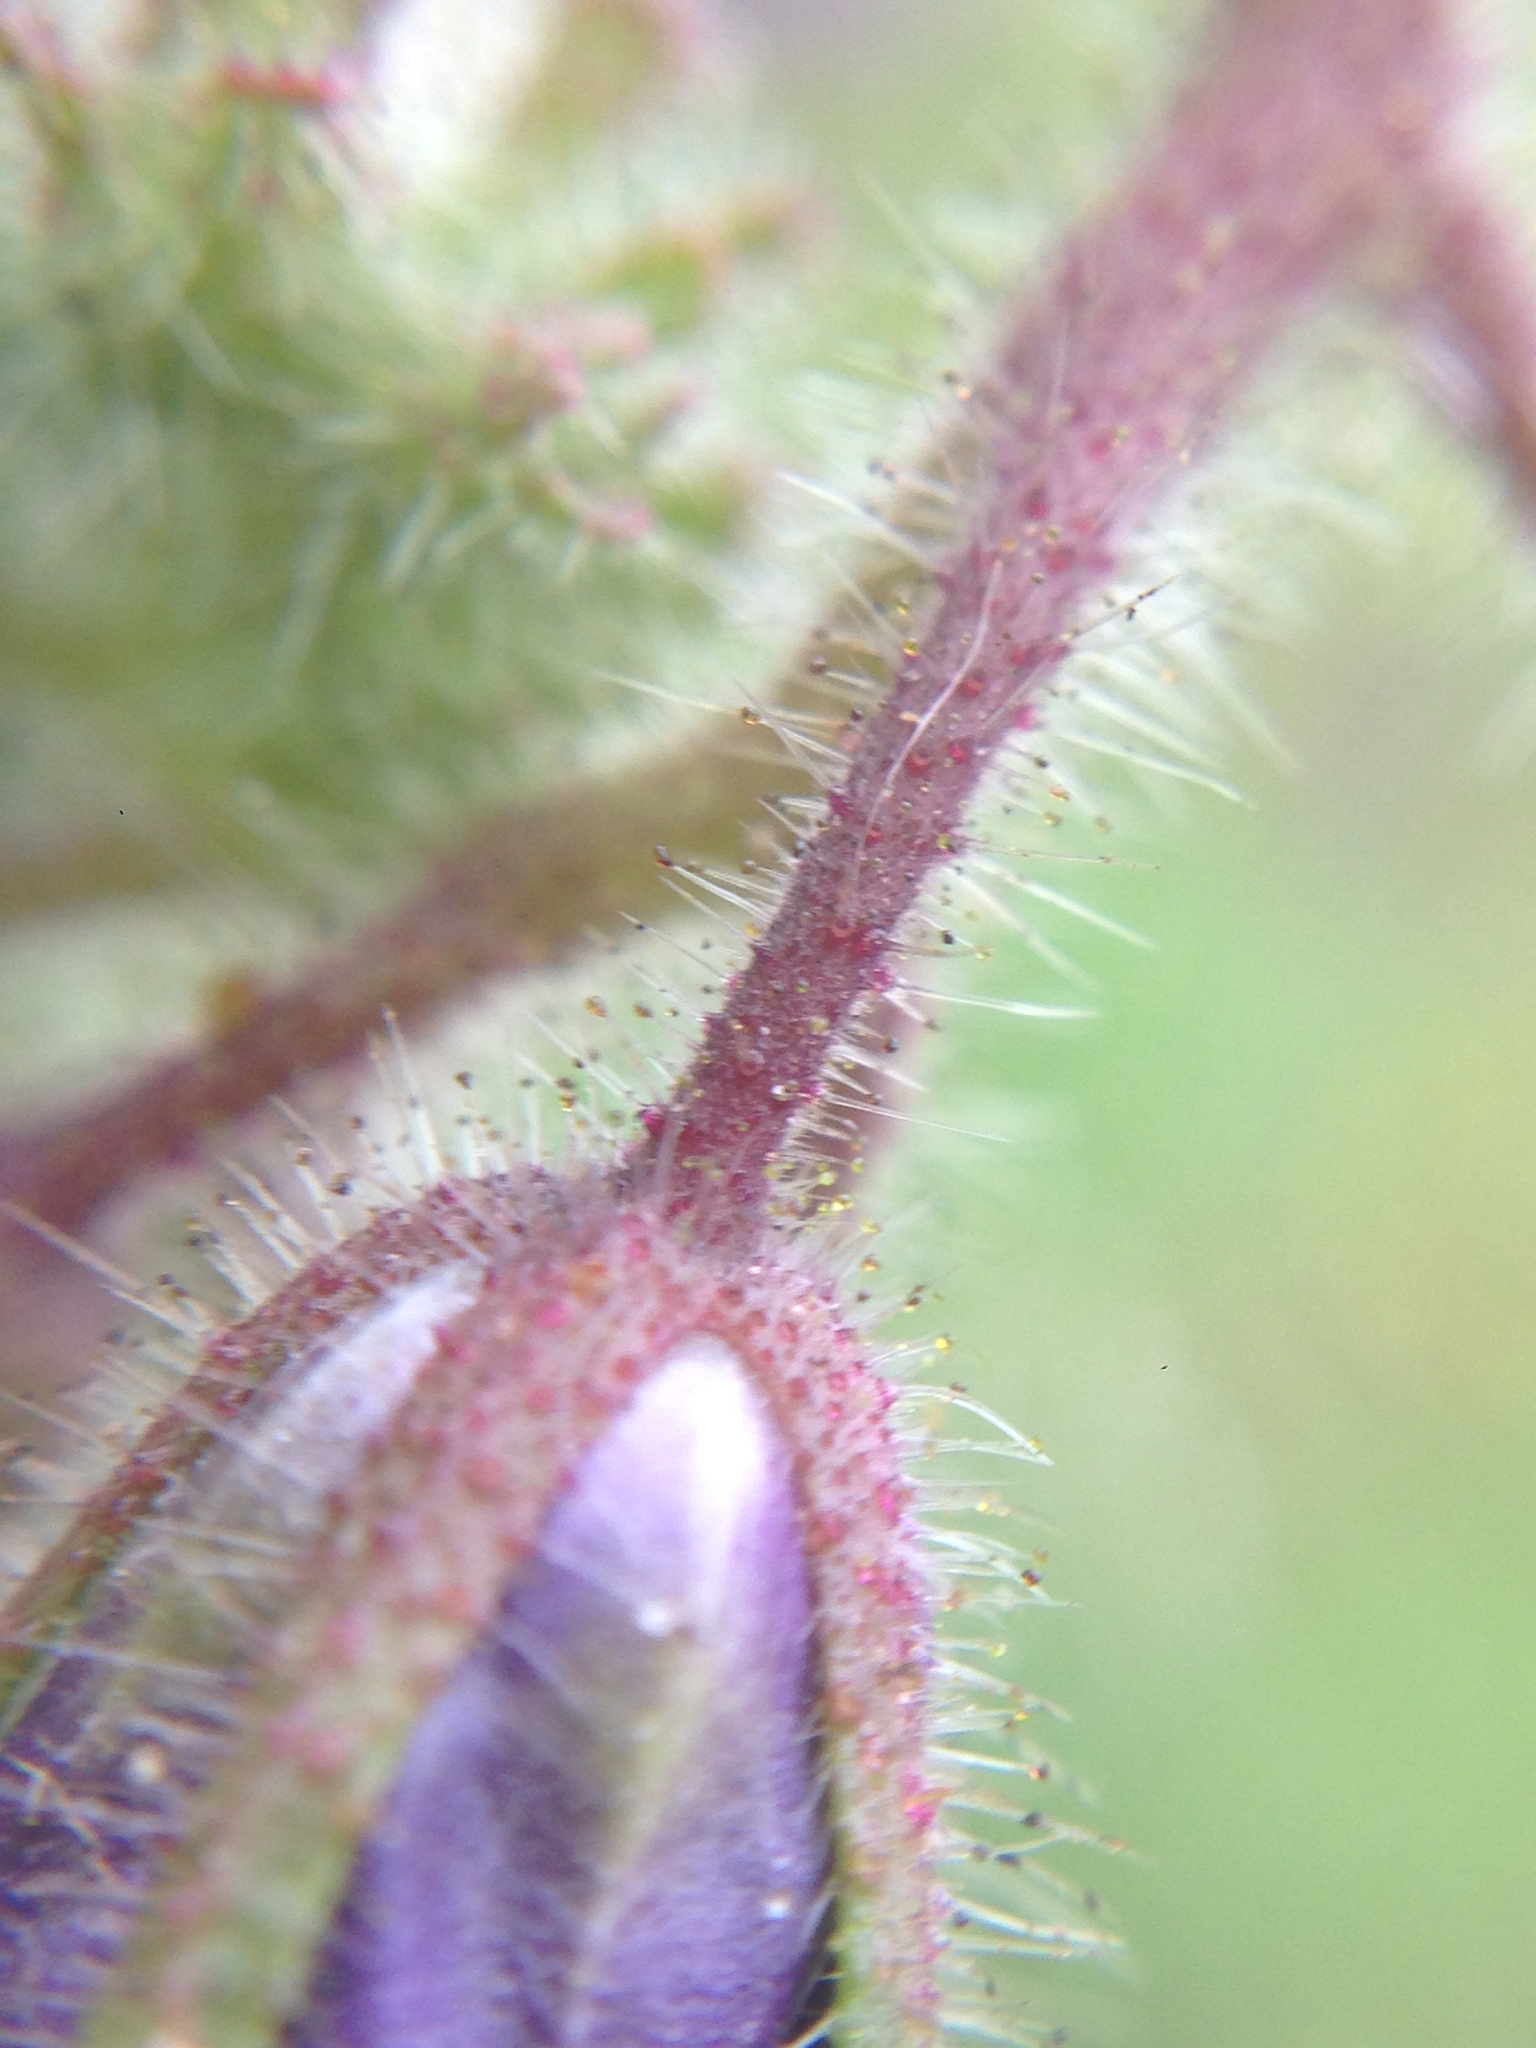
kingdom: Plantae
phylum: Tracheophyta
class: Magnoliopsida
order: Boraginales
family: Hydrophyllaceae
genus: Phacelia
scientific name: Phacelia parryi
